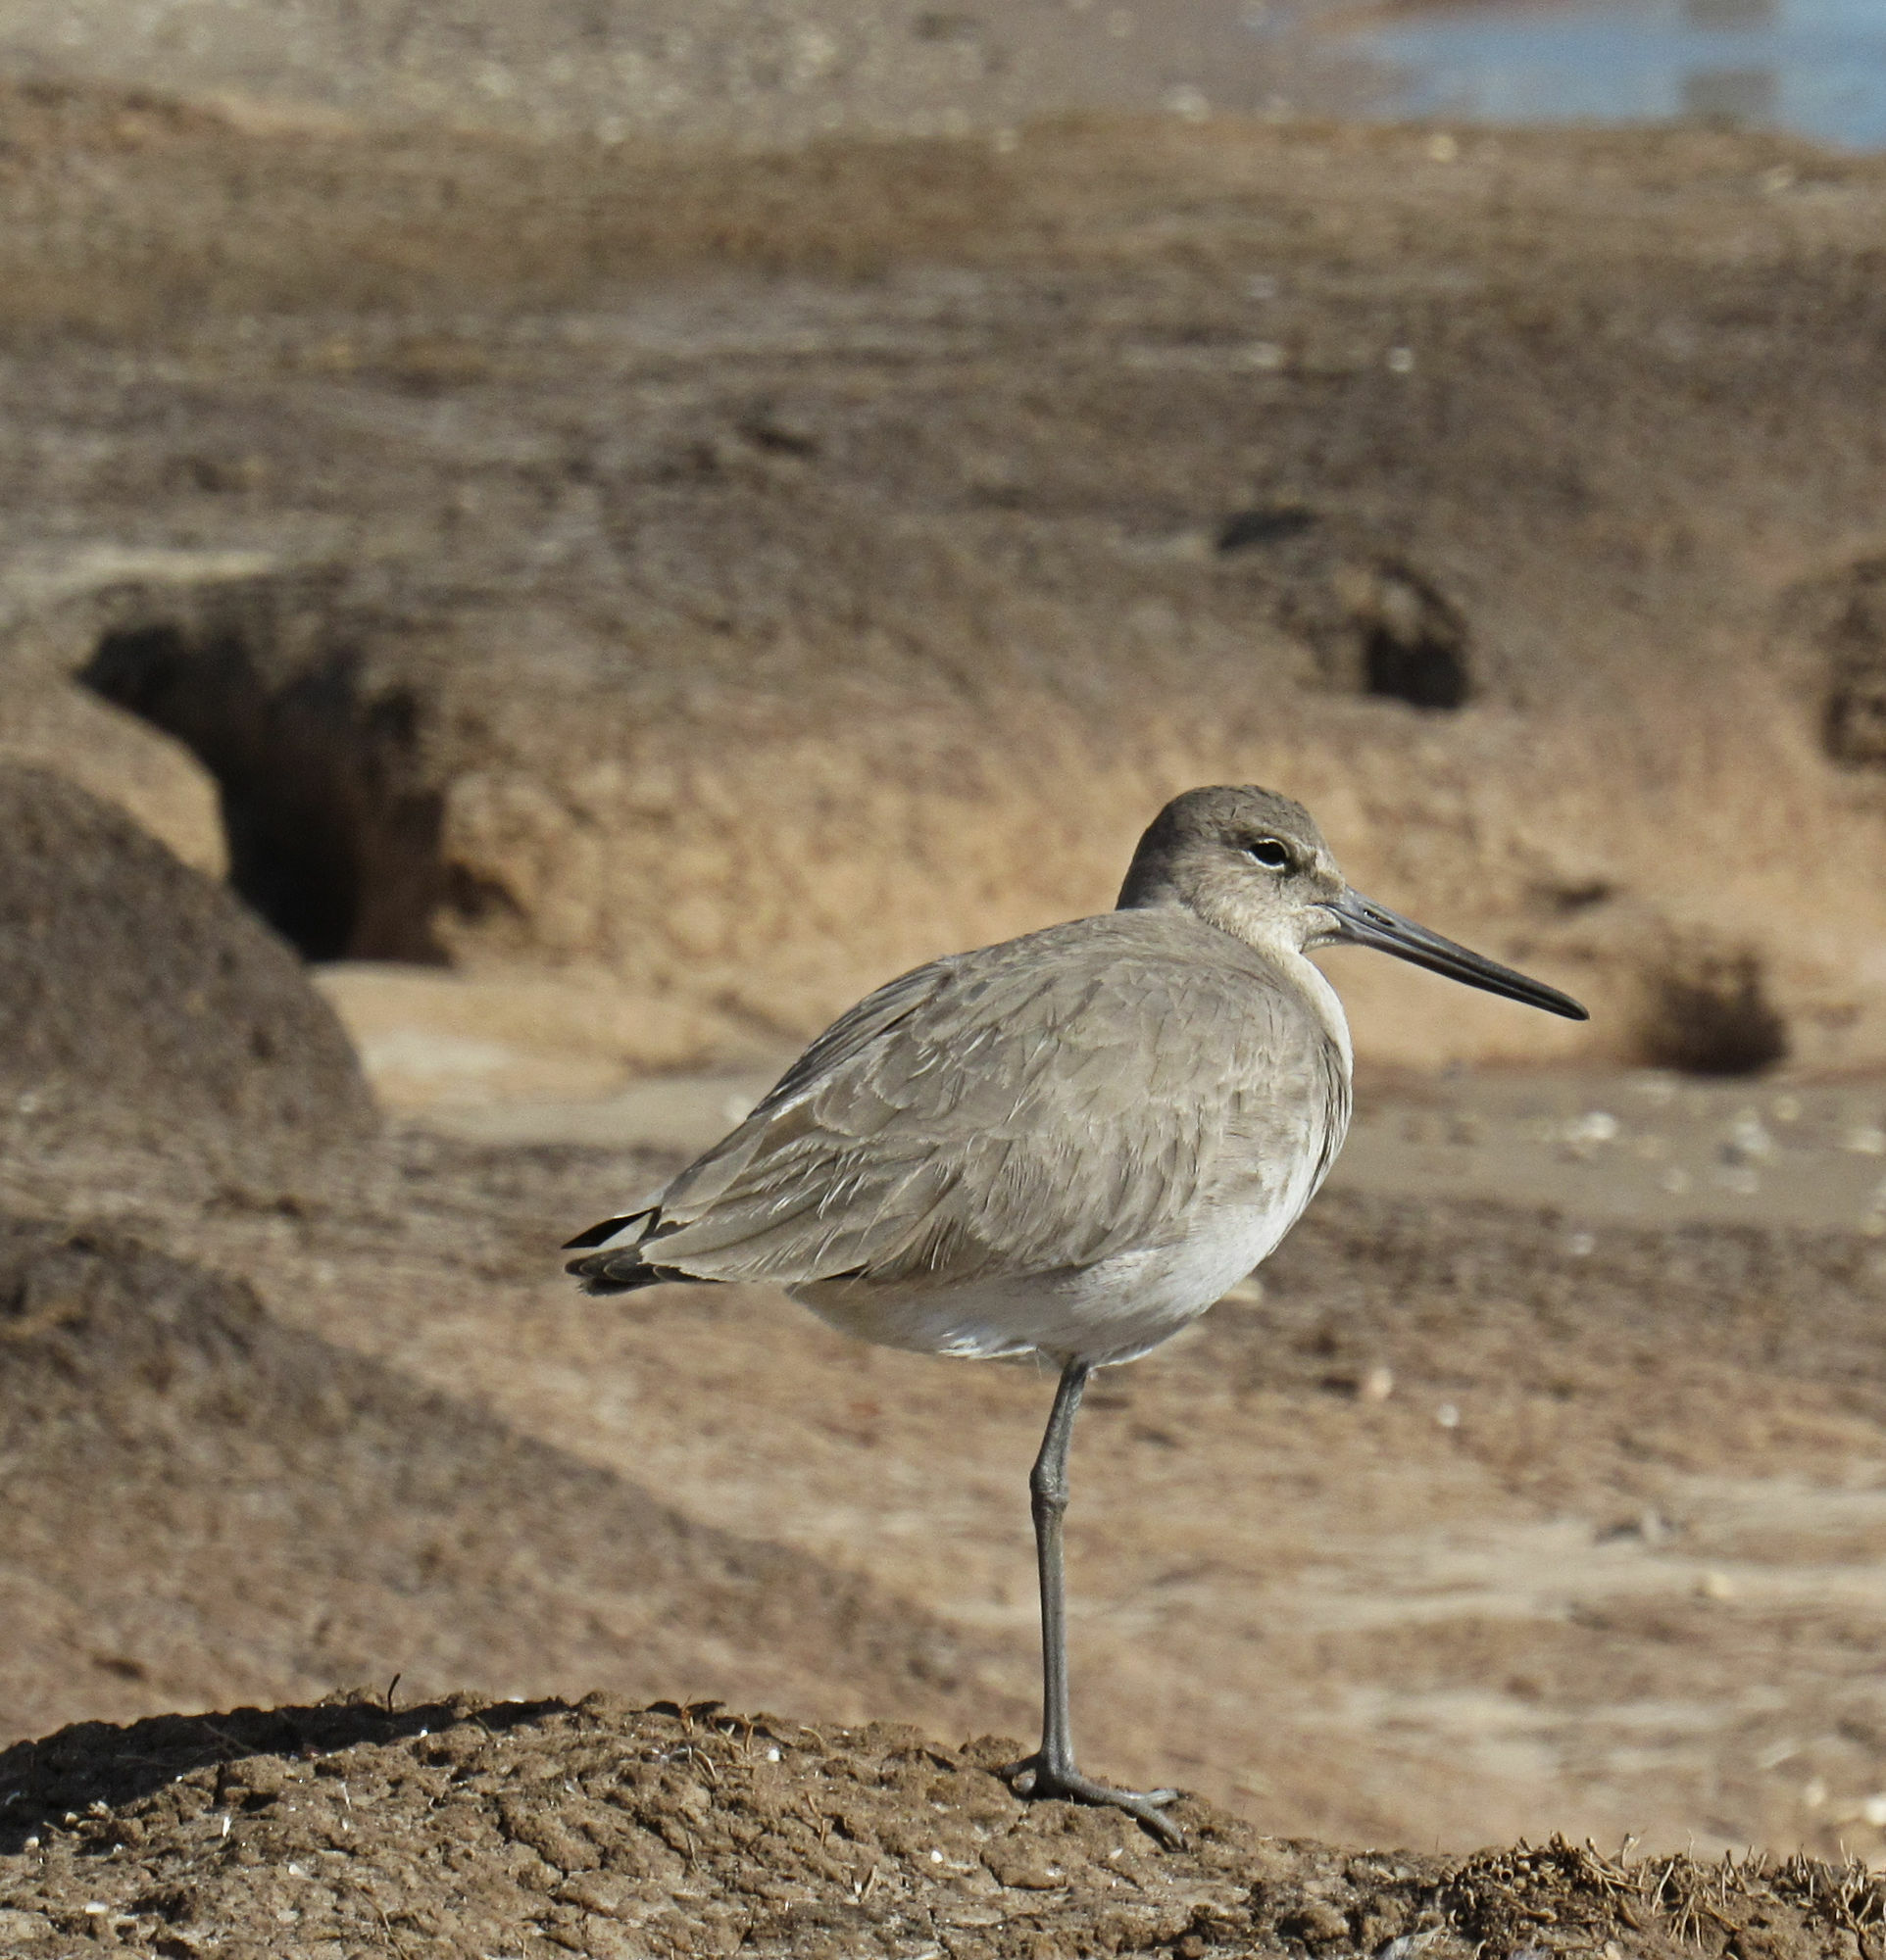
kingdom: Animalia
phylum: Chordata
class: Aves
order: Charadriiformes
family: Scolopacidae
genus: Tringa
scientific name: Tringa semipalmata
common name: Willet
